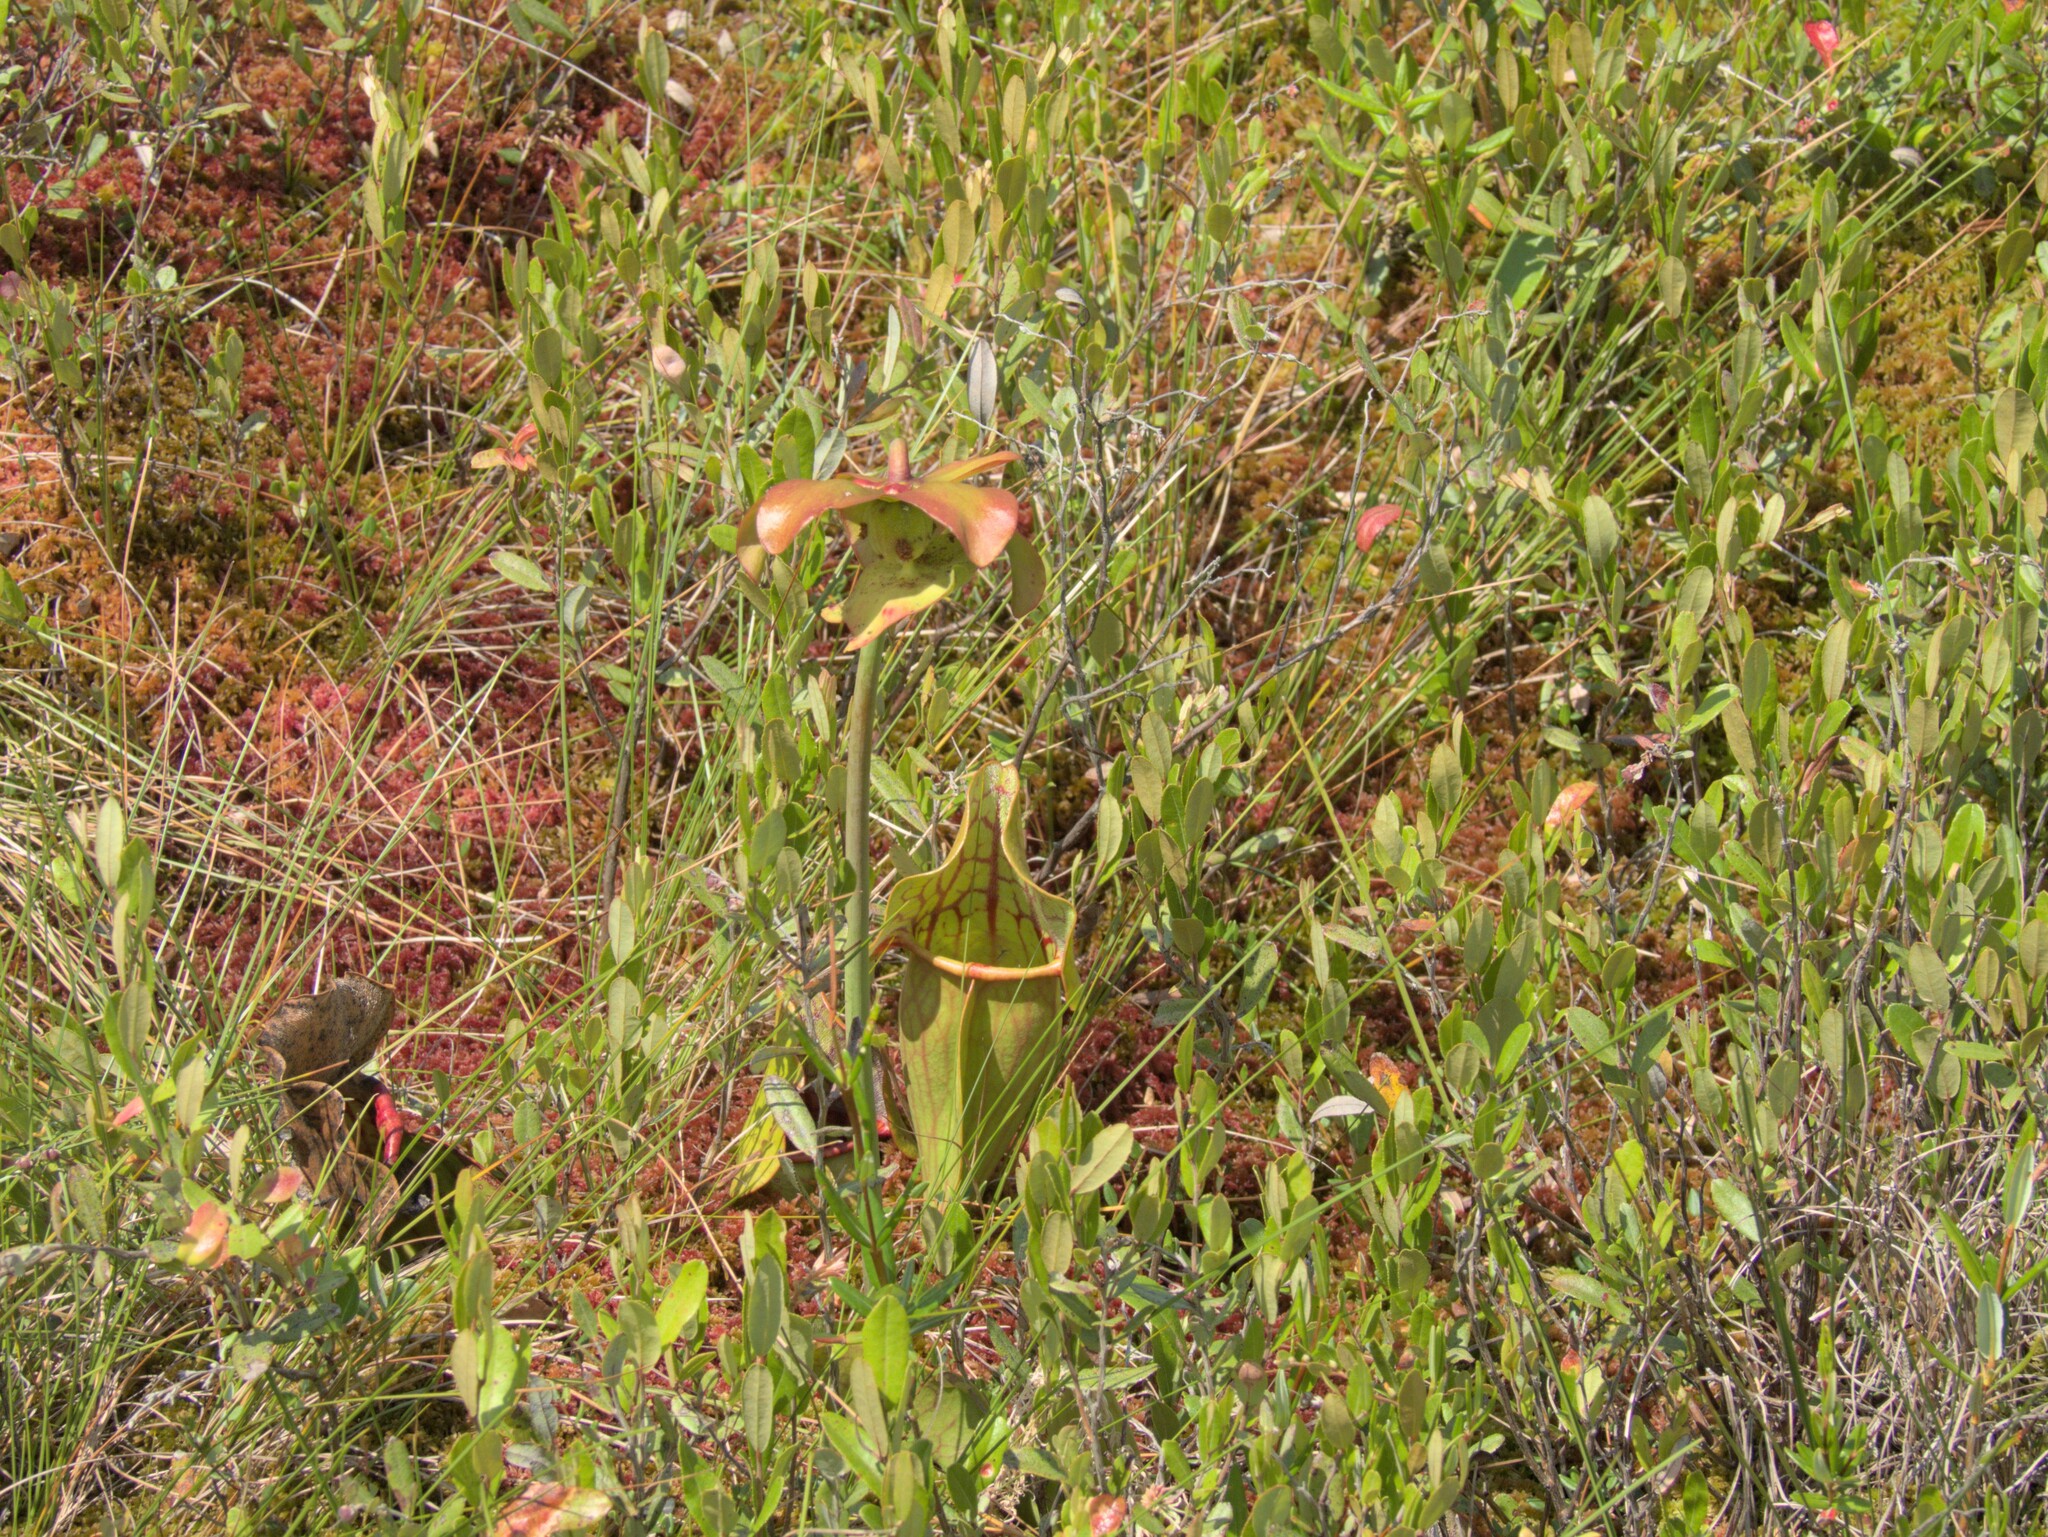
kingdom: Plantae
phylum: Tracheophyta
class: Magnoliopsida
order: Ericales
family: Sarraceniaceae
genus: Sarracenia
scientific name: Sarracenia purpurea
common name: Pitcherplant
